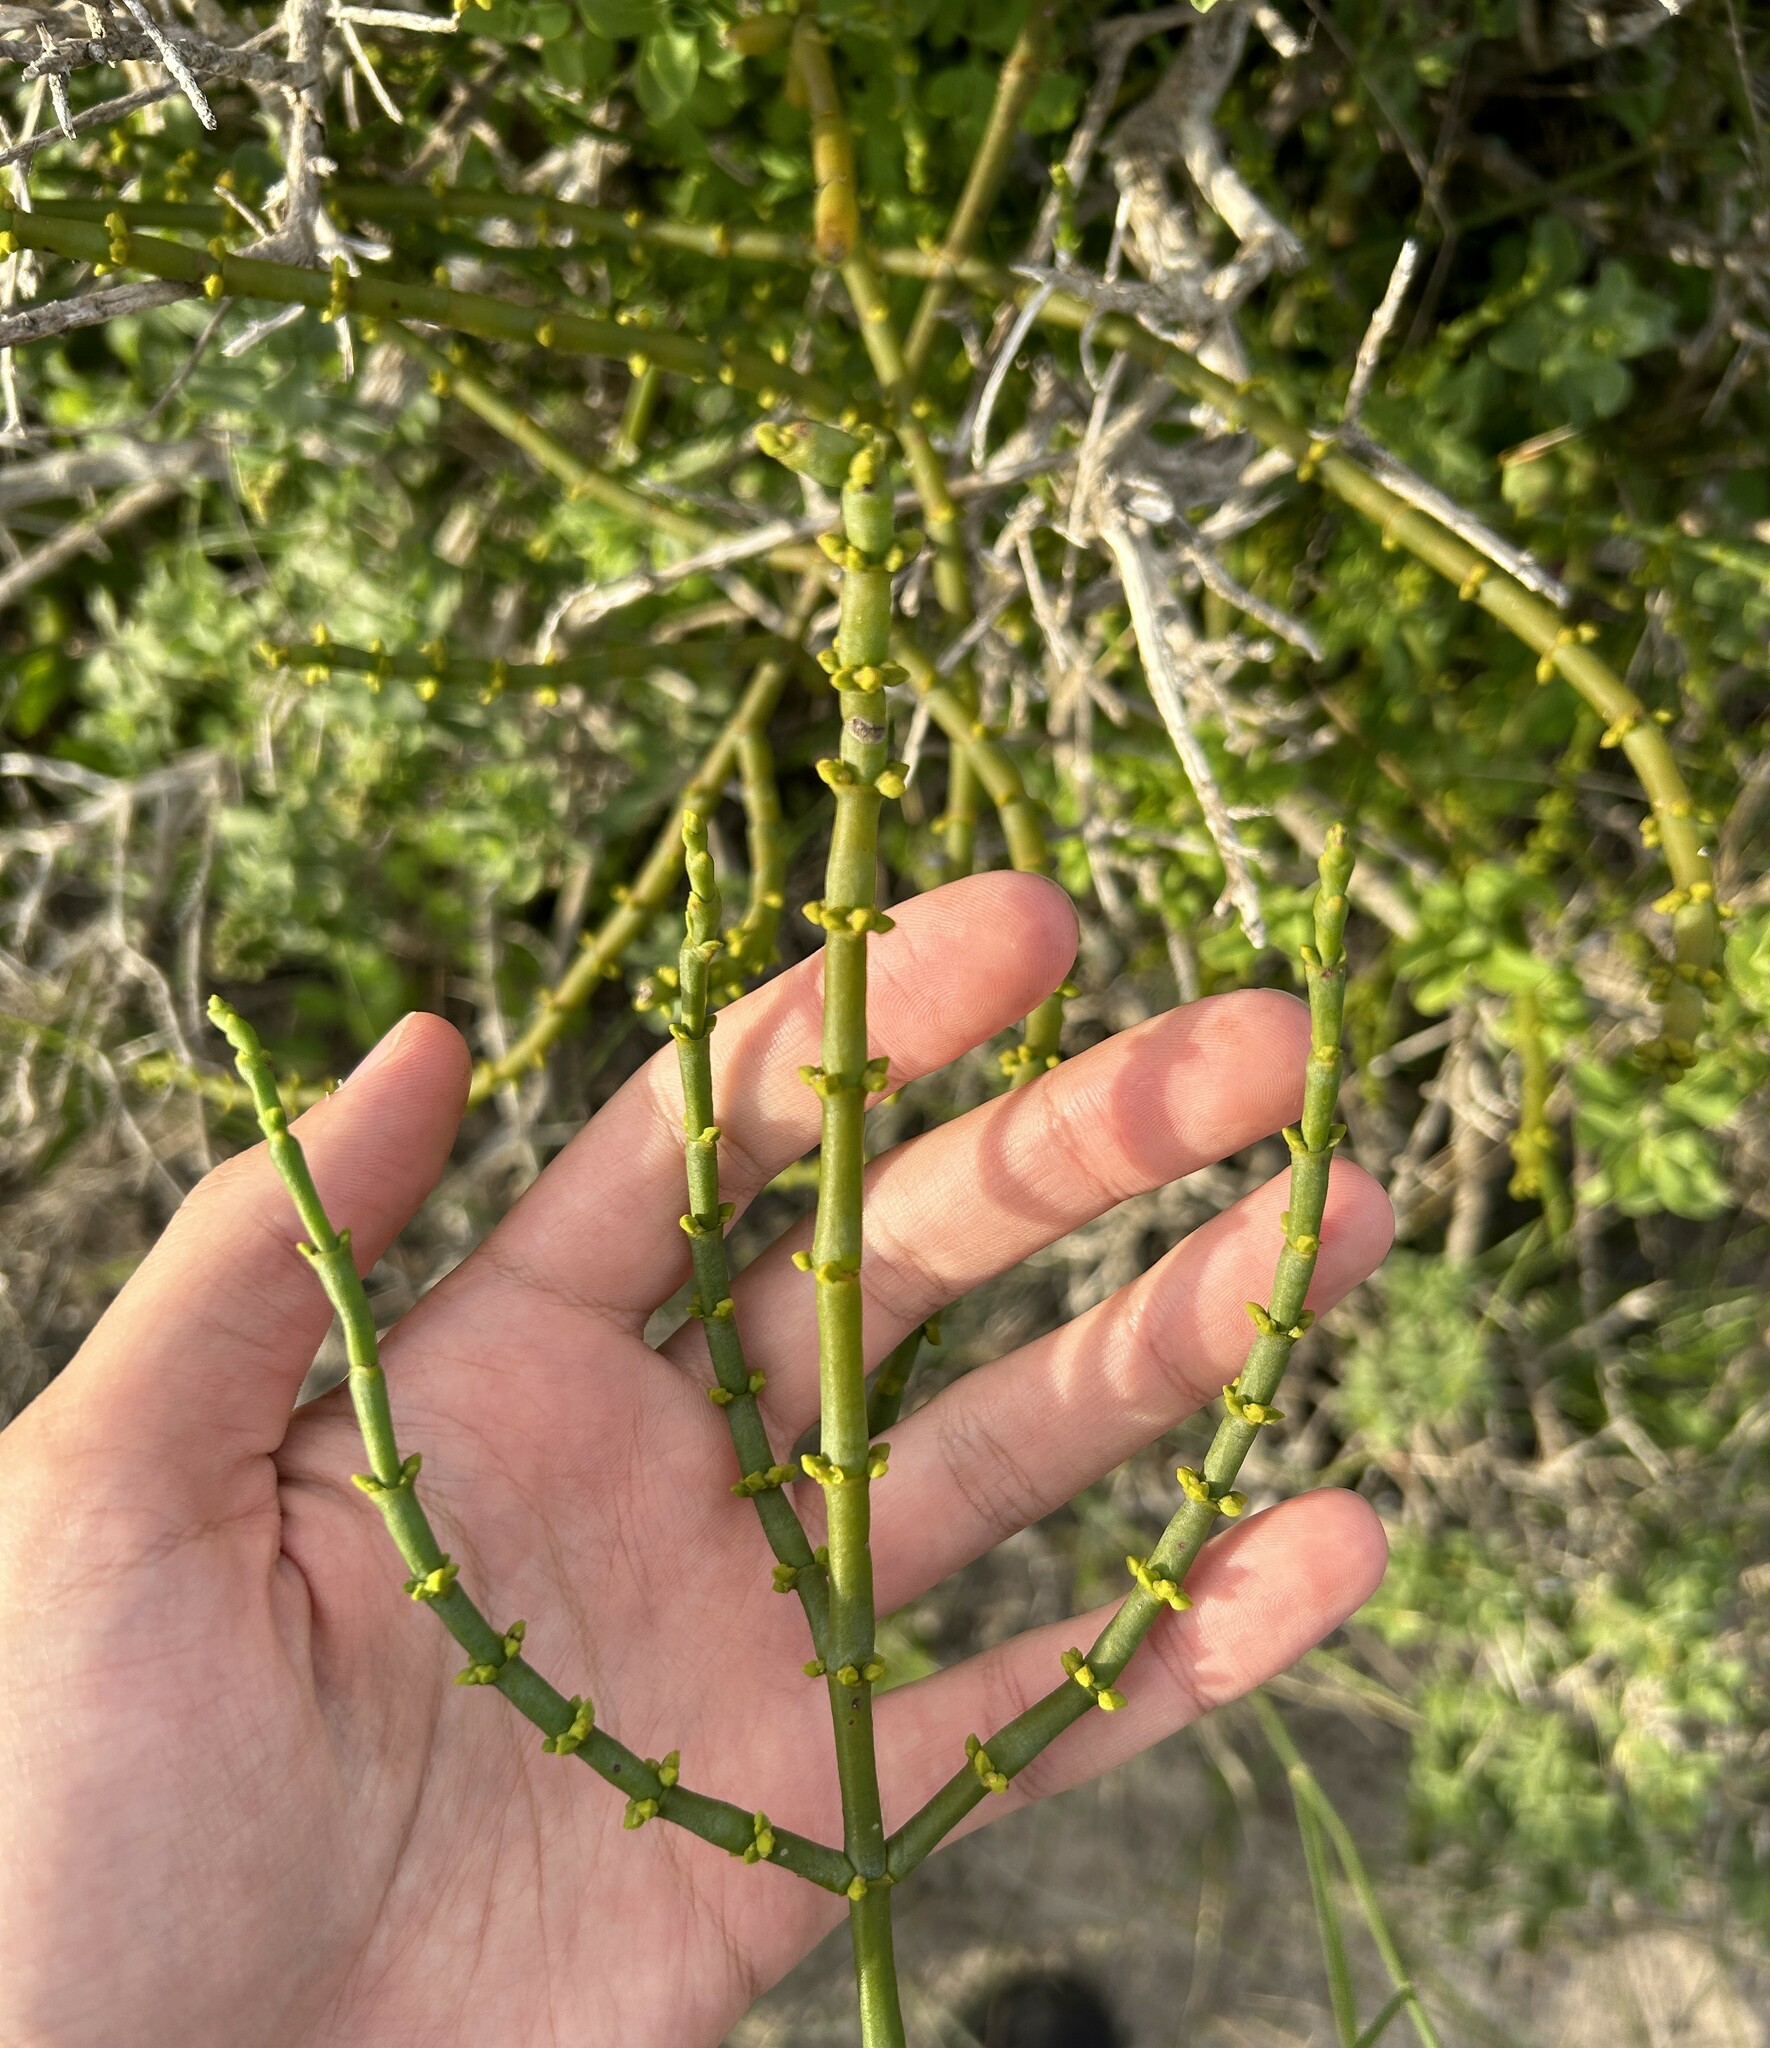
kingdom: Plantae
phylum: Tracheophyta
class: Magnoliopsida
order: Santalales
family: Viscaceae
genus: Viscum
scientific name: Viscum capense
